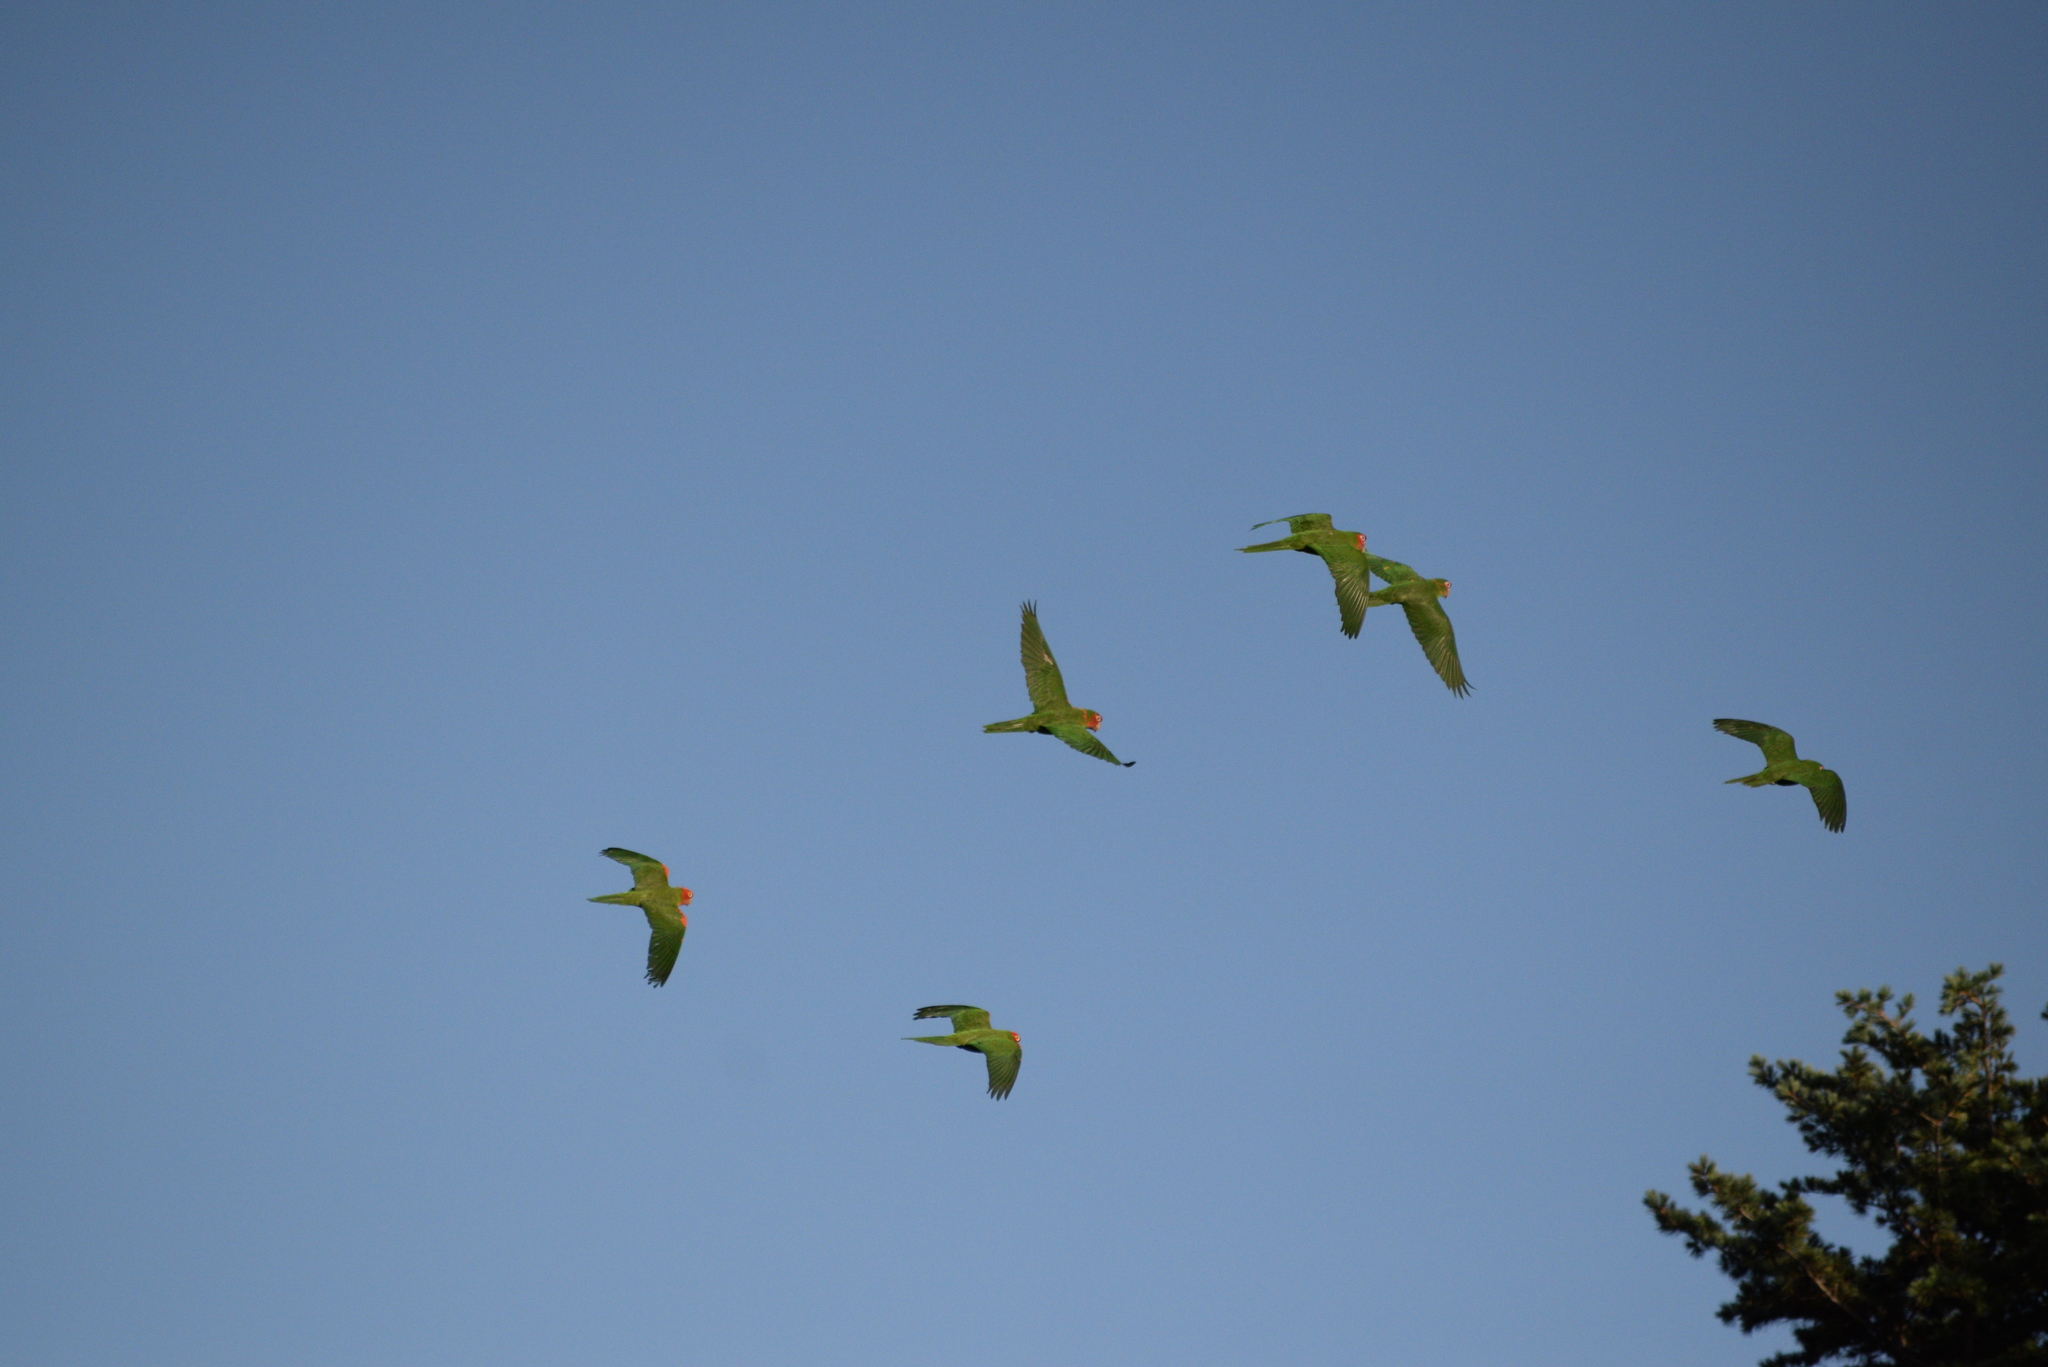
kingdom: Animalia
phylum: Chordata
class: Aves
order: Psittaciformes
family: Psittacidae
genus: Psittacara
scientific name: Psittacara
